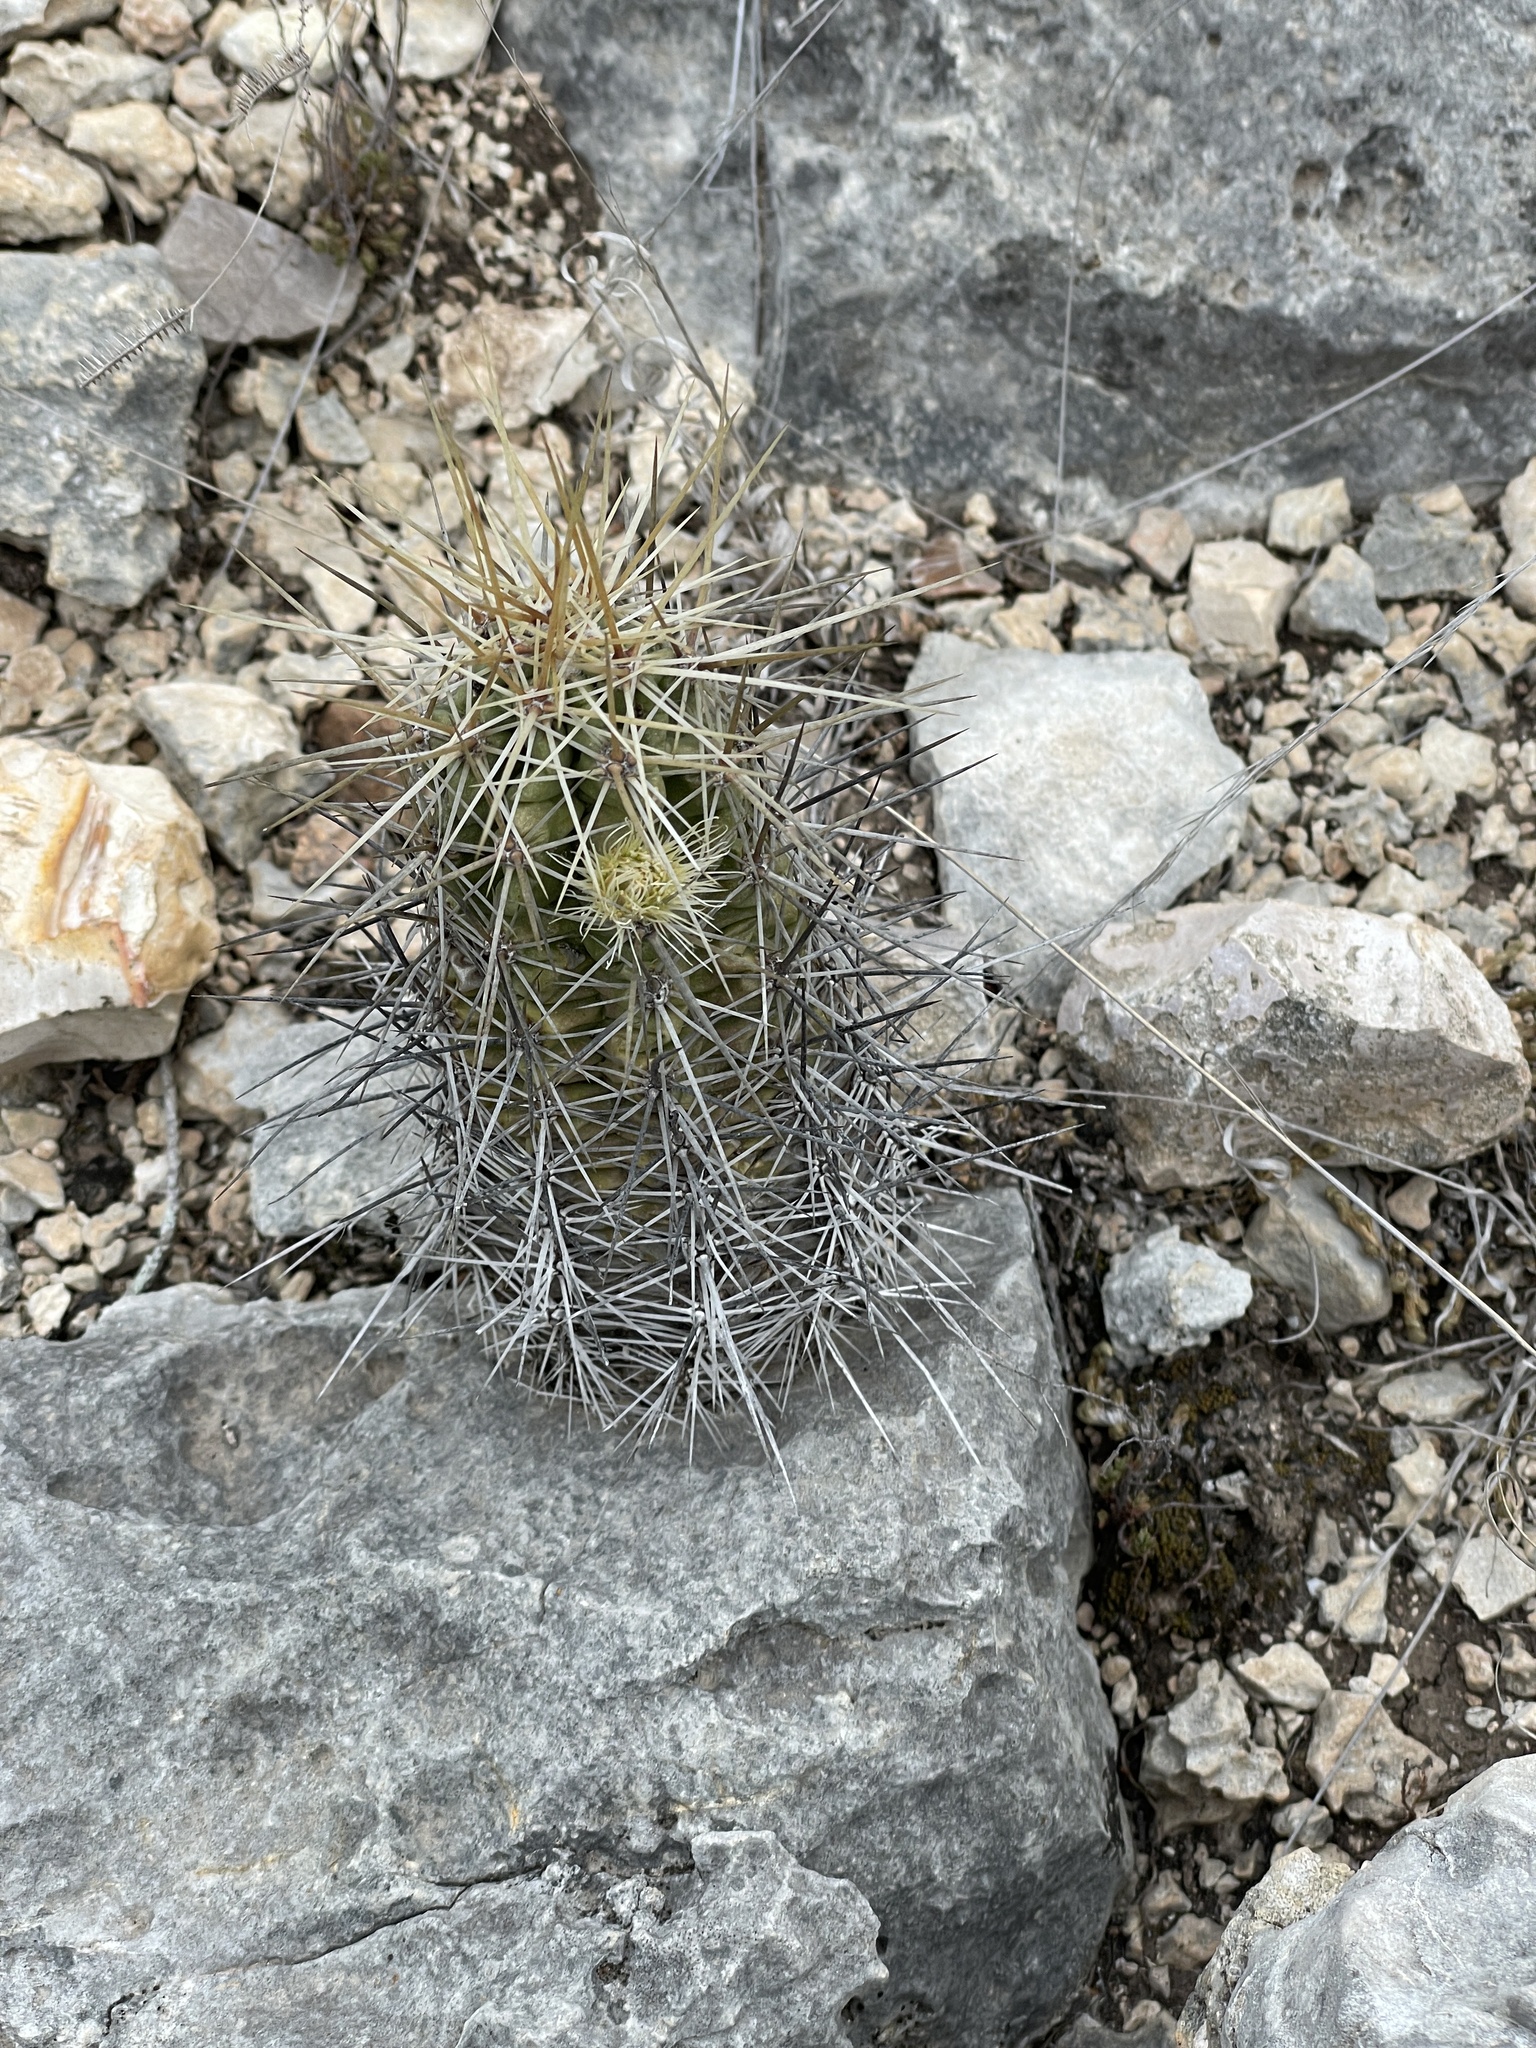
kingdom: Plantae
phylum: Tracheophyta
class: Magnoliopsida
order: Caryophyllales
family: Cactaceae
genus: Echinocereus
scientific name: Echinocereus enneacanthus
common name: Pitaya
